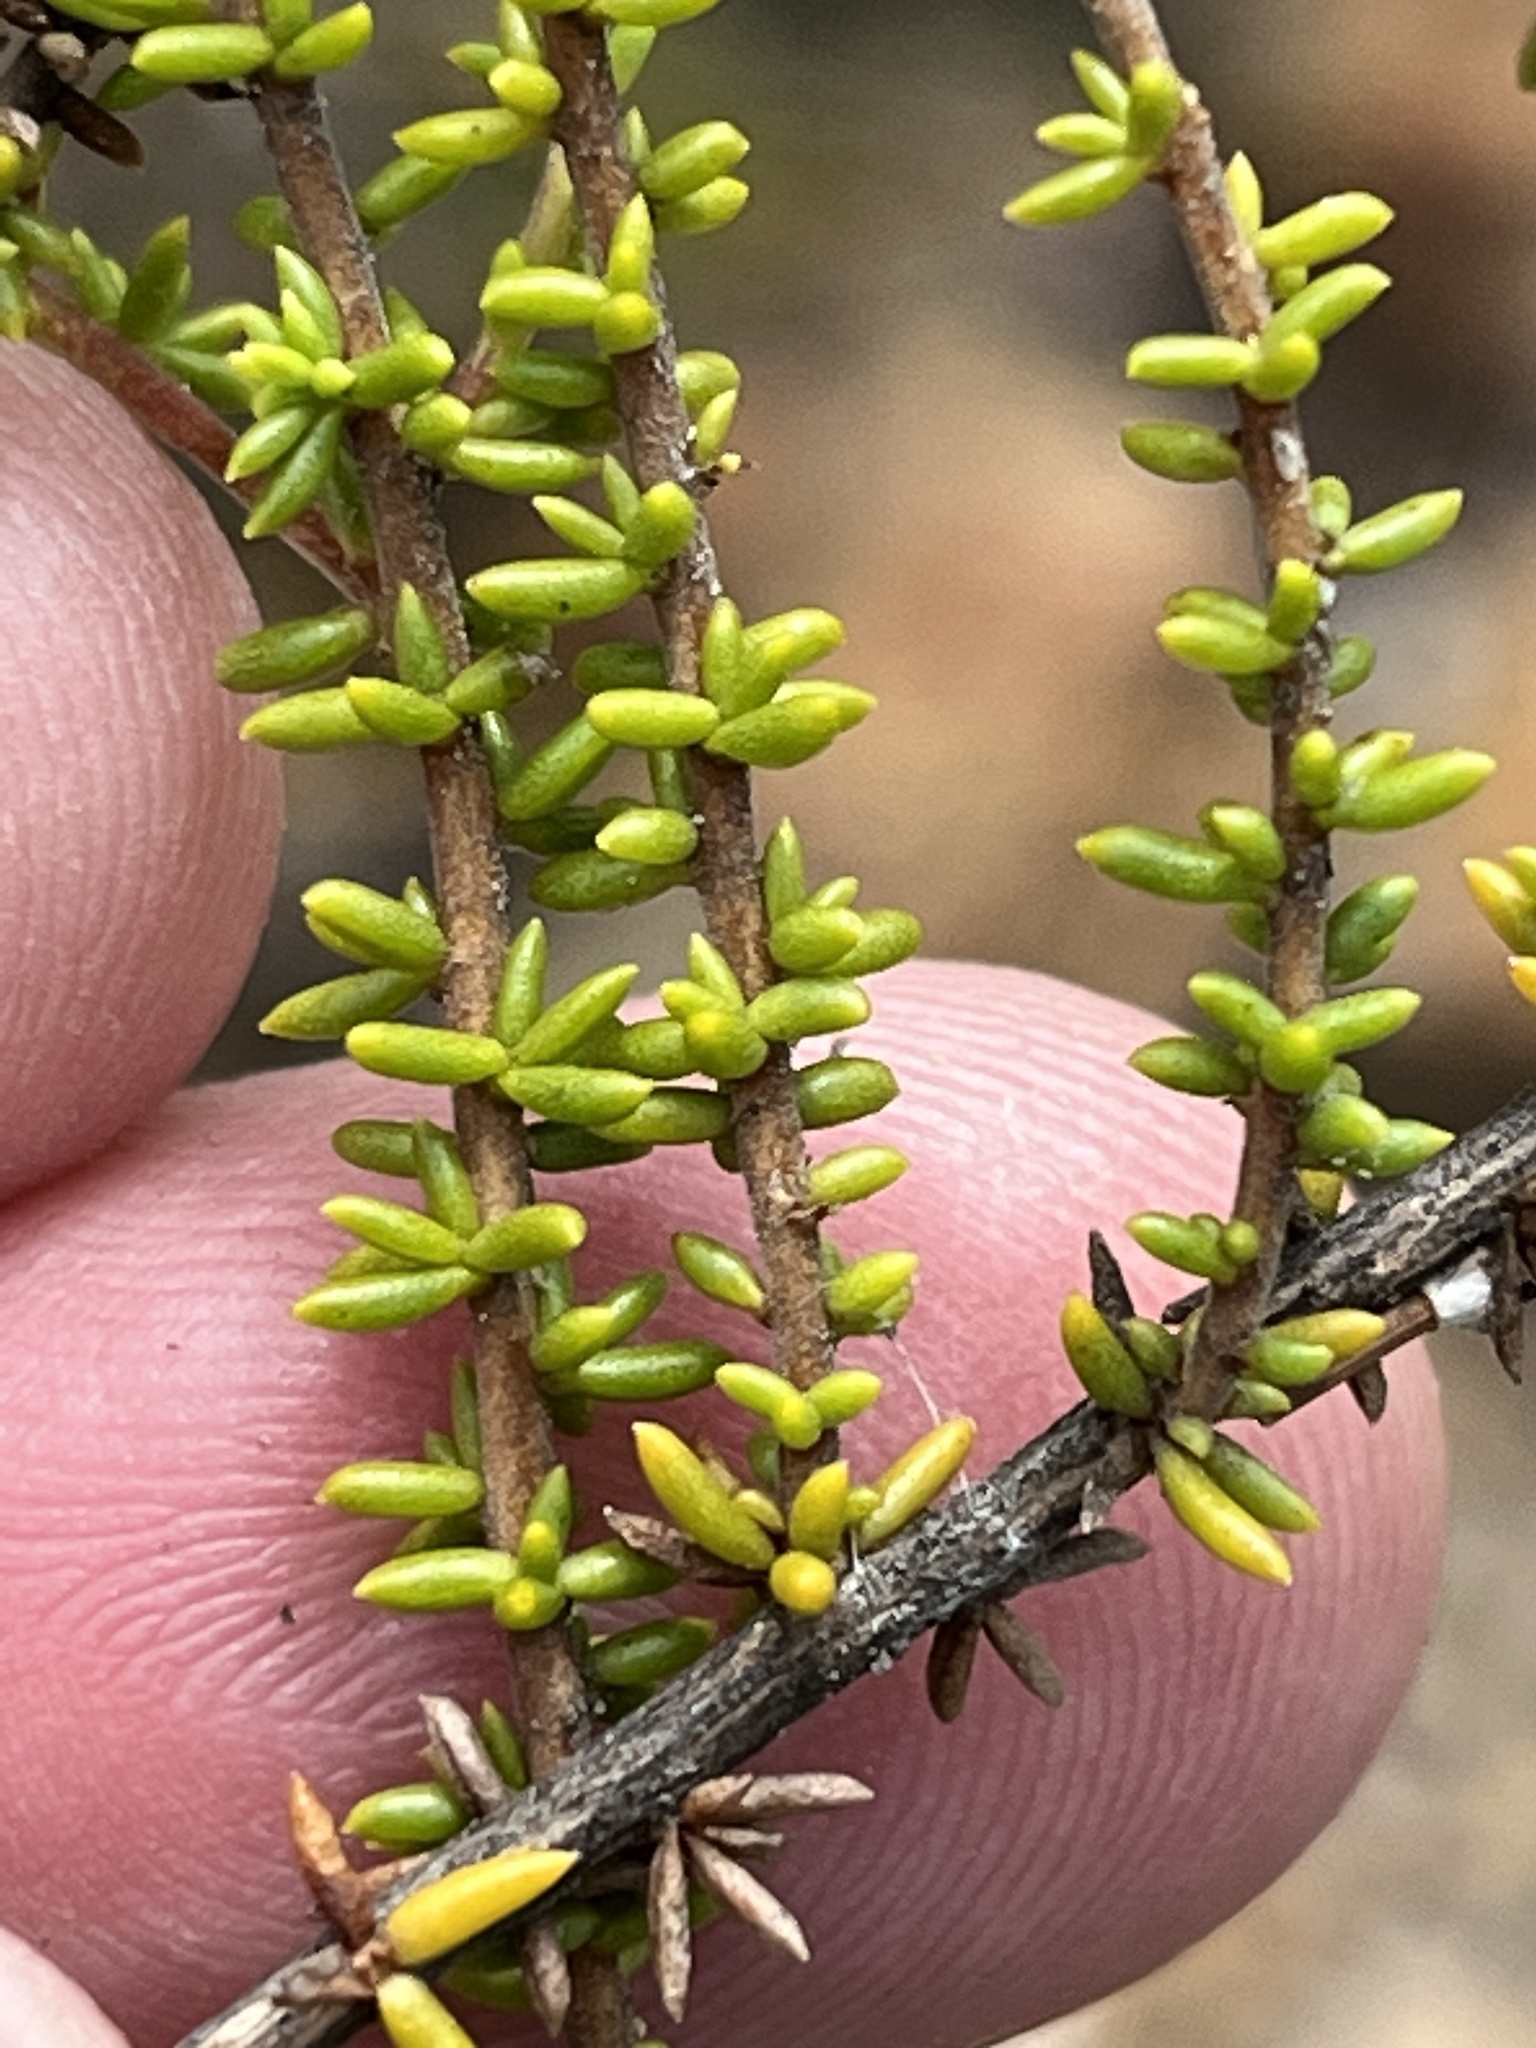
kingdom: Plantae
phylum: Tracheophyta
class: Magnoliopsida
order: Lamiales
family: Scrophulariaceae
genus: Selago
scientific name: Selago brevifolia
